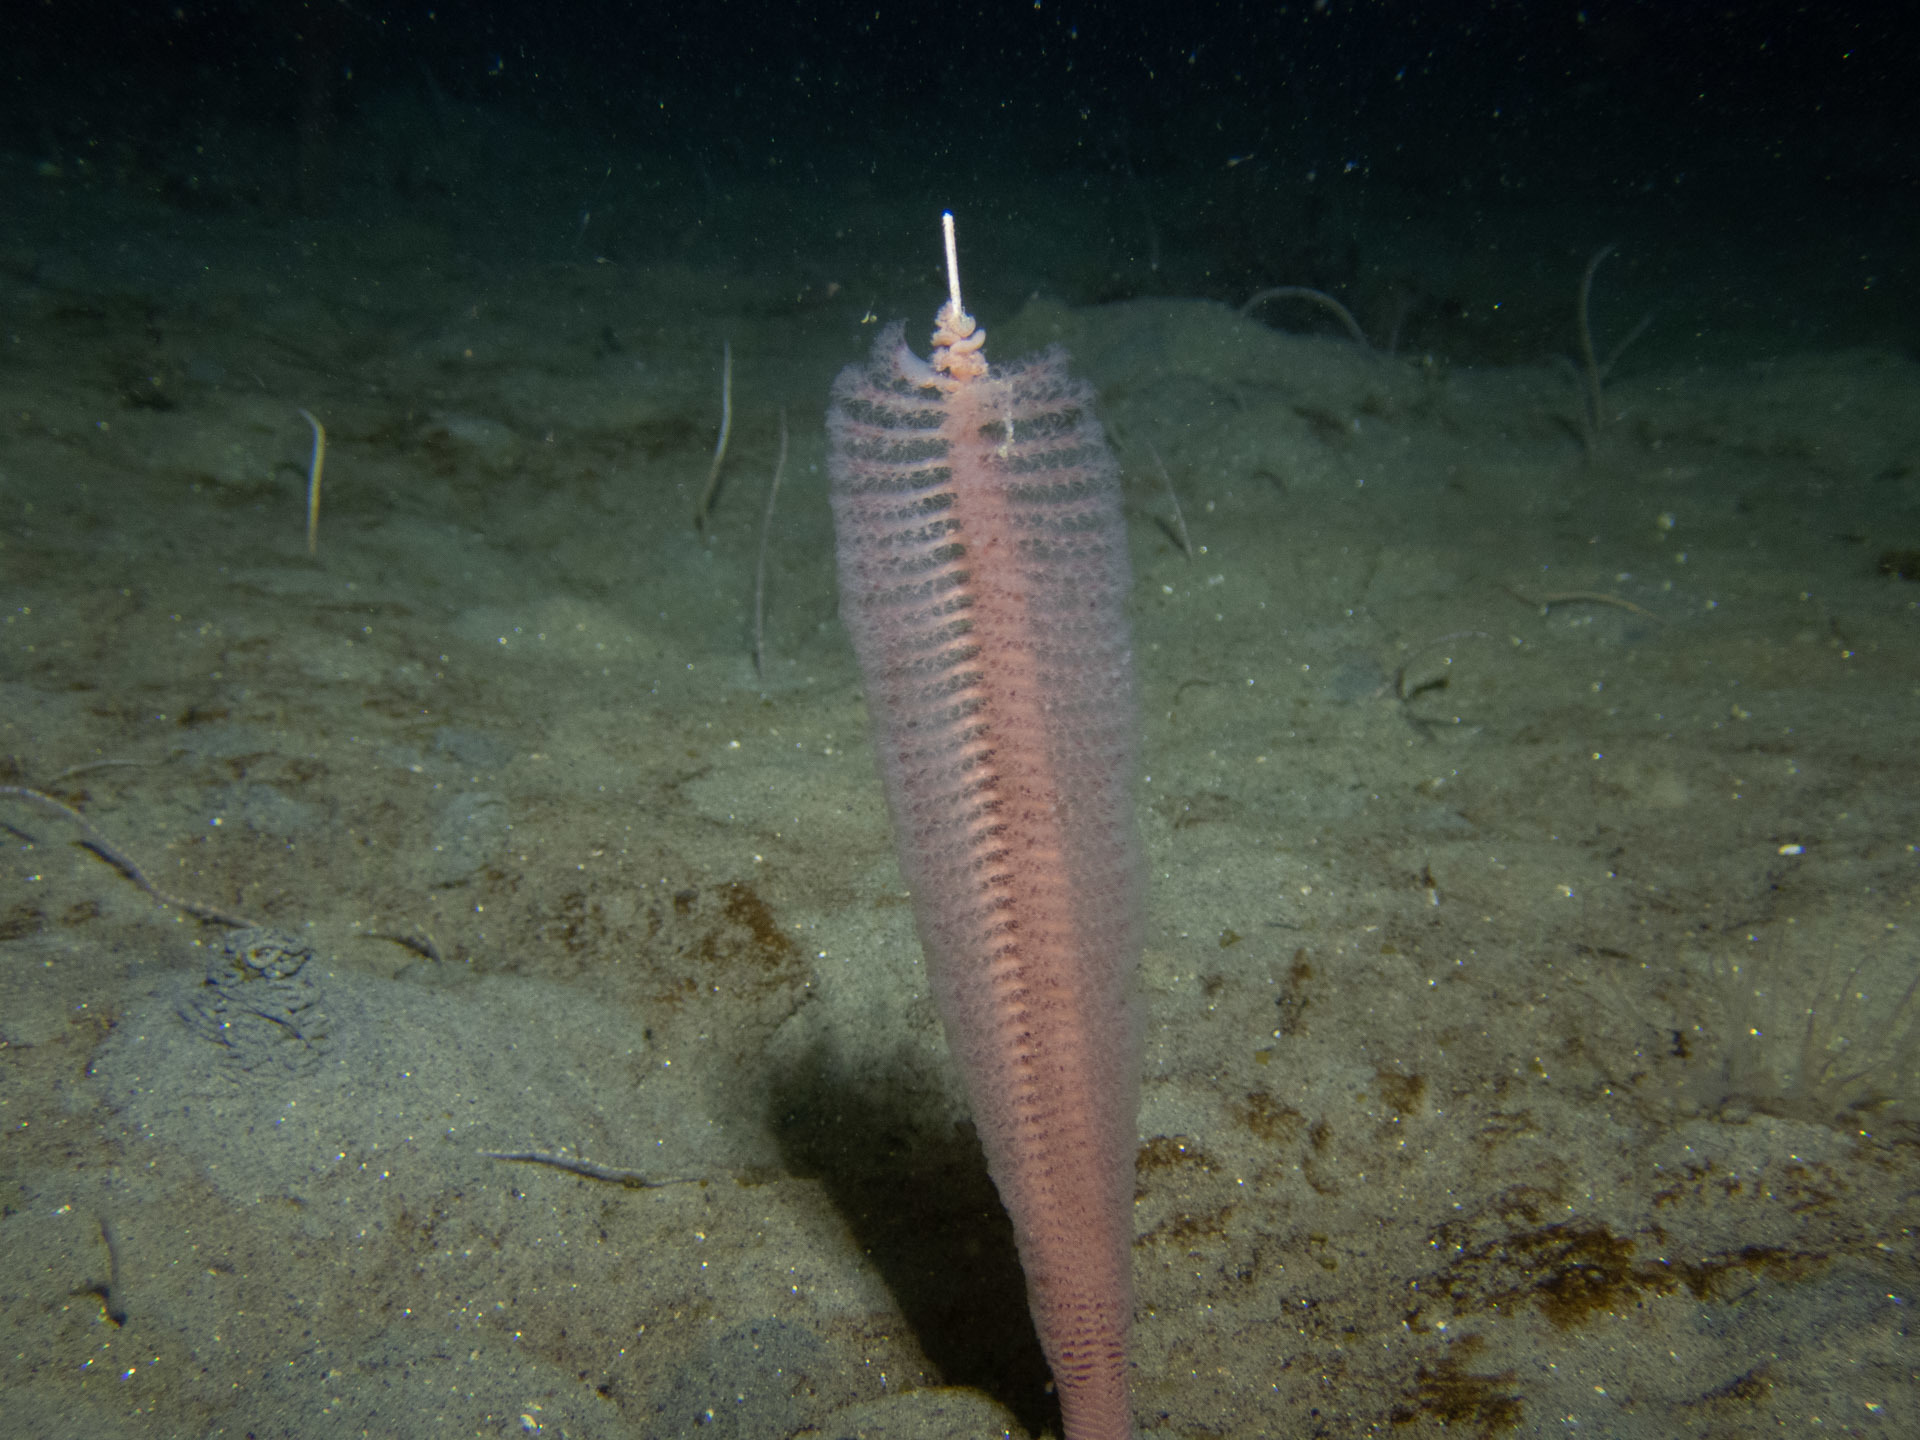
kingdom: Animalia
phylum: Cnidaria
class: Anthozoa
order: Scleralcyonacea
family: Virgulariidae
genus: Stylatula
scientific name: Stylatula elongata
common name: Slender sea pen
